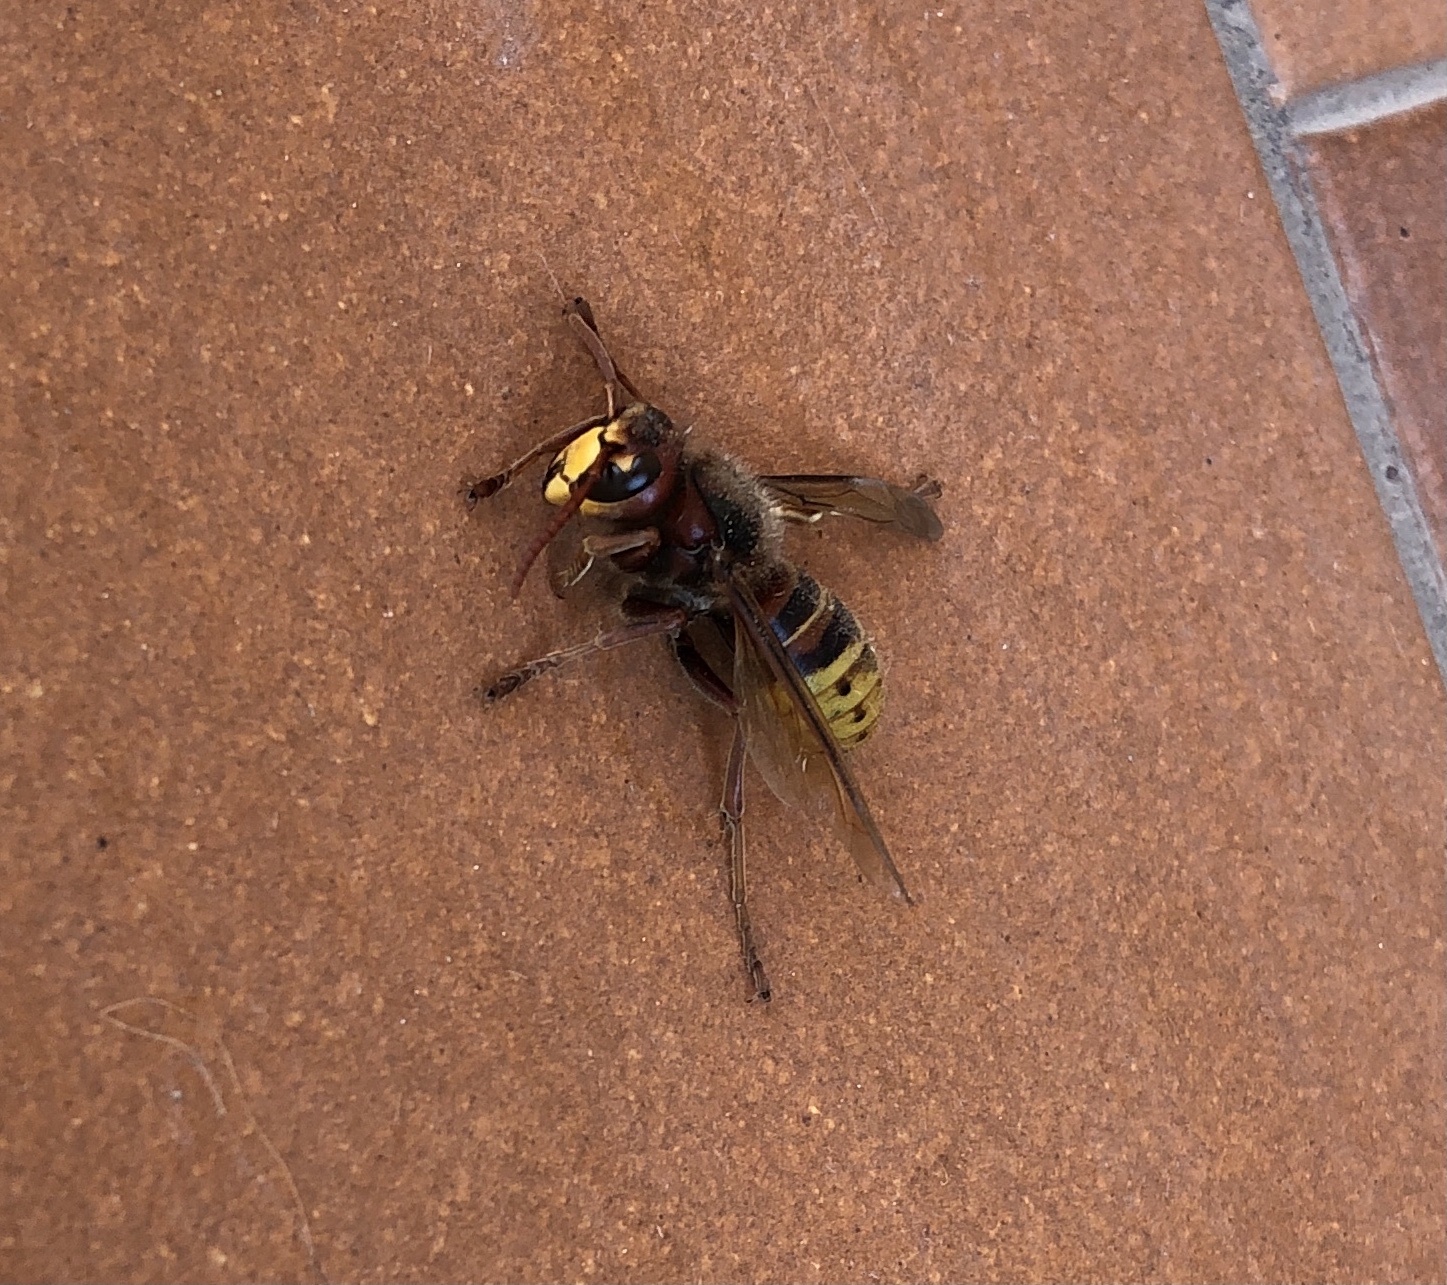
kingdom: Animalia
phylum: Arthropoda
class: Insecta
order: Hymenoptera
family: Vespidae
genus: Vespa
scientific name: Vespa crabro
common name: Hornet
